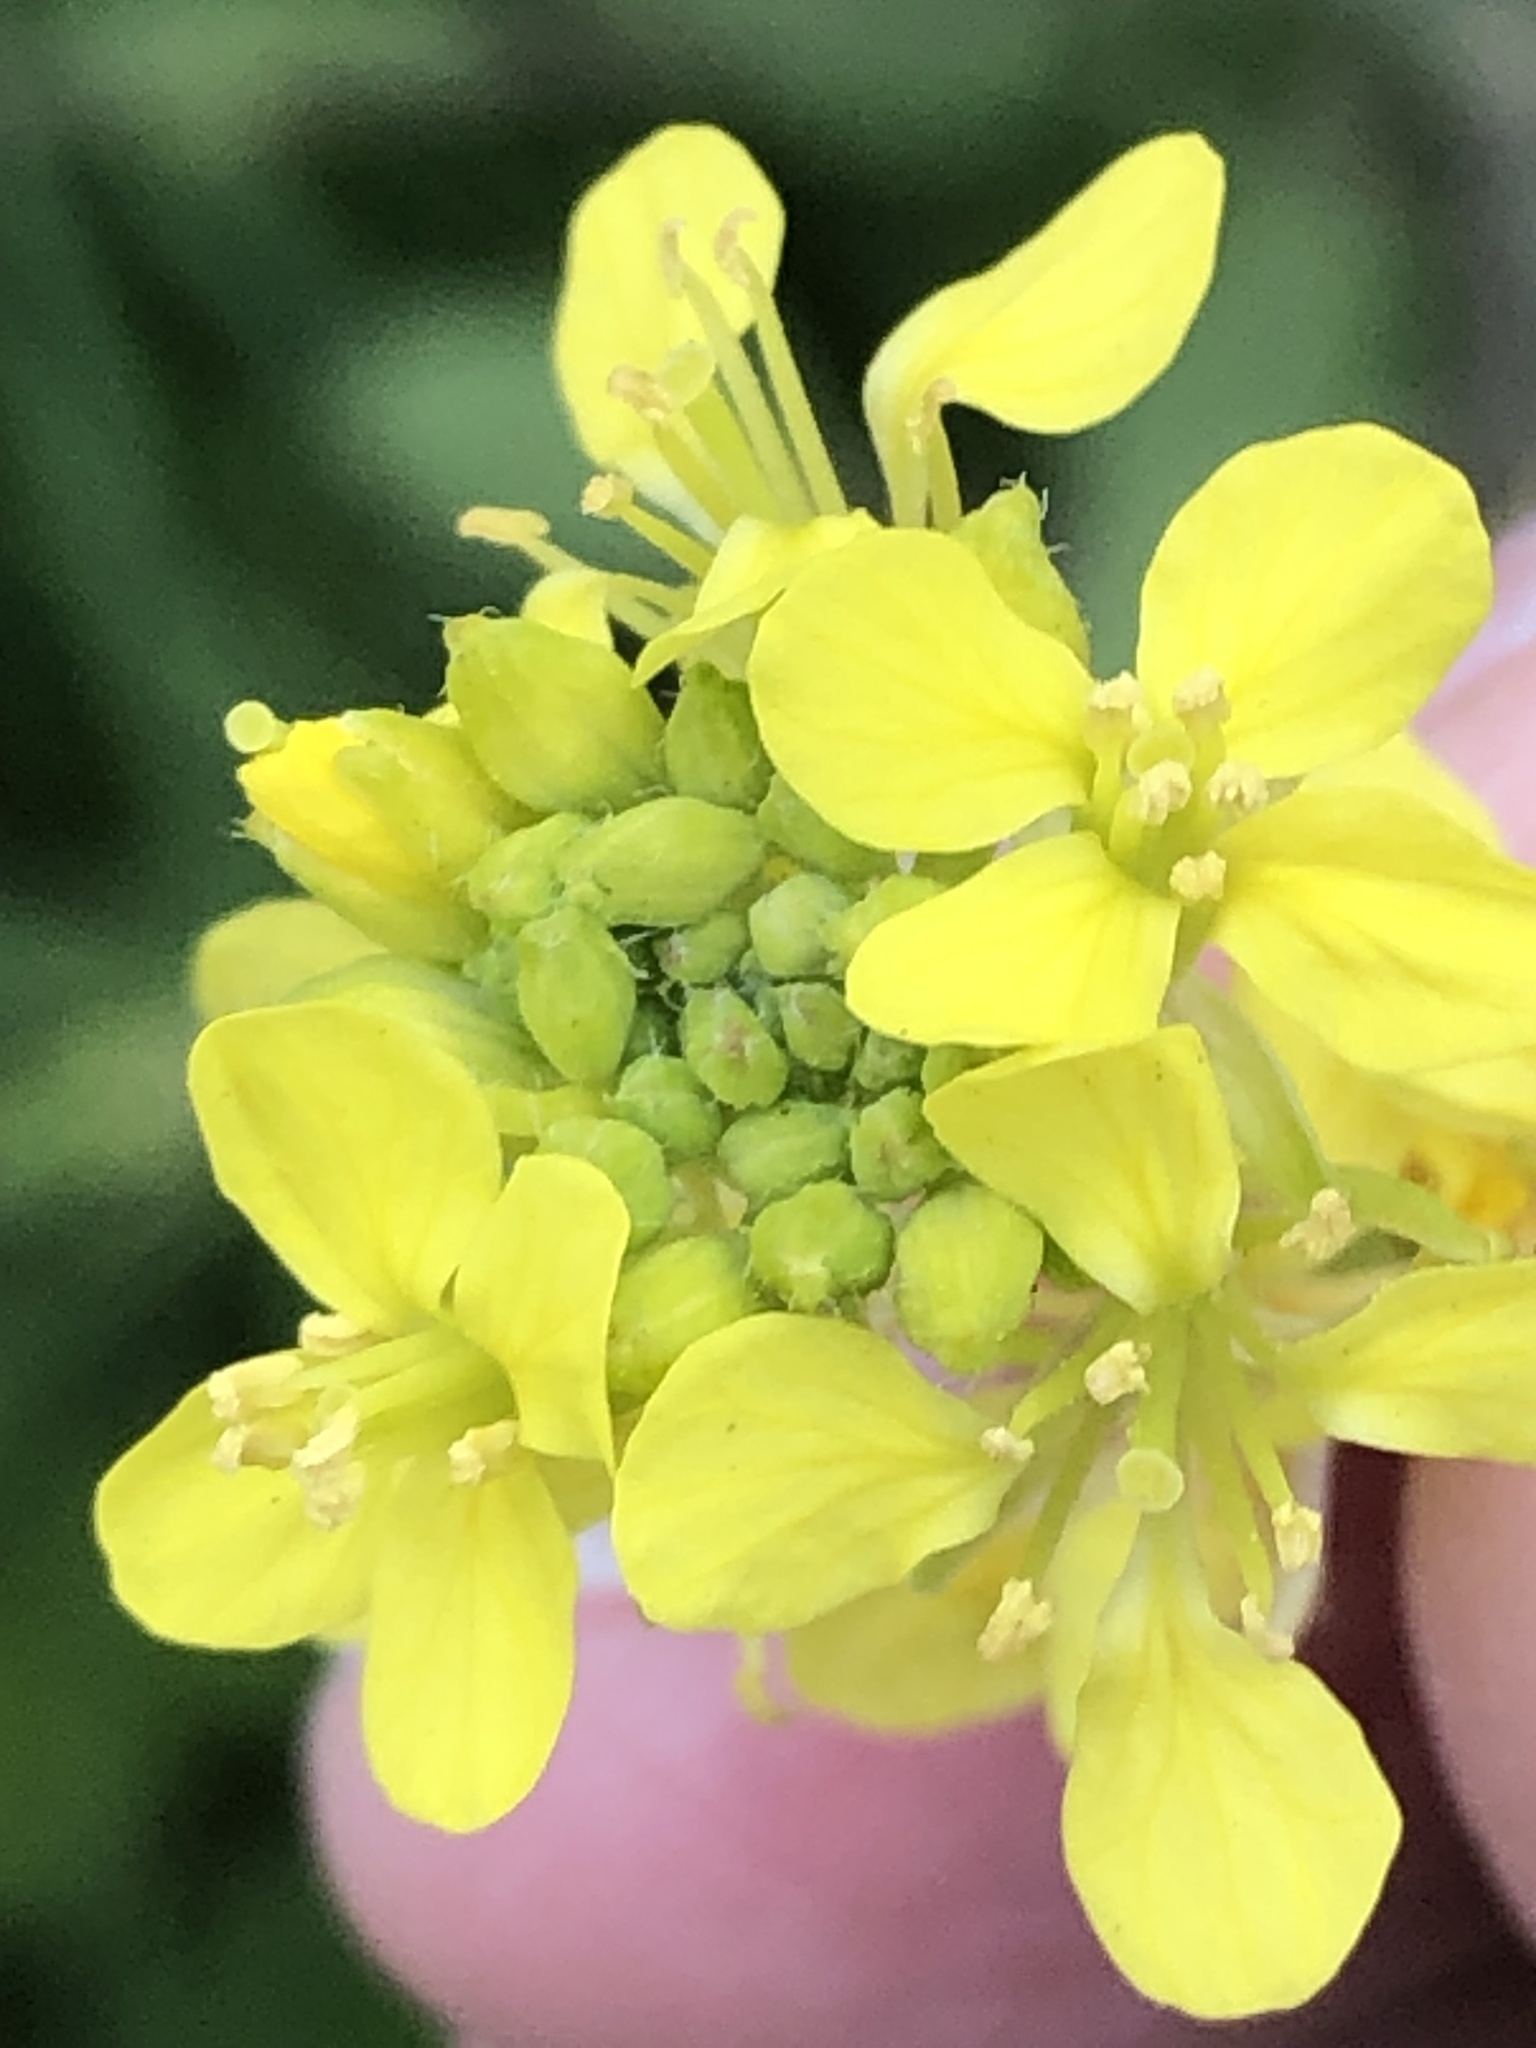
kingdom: Plantae
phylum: Tracheophyta
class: Magnoliopsida
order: Brassicales
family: Brassicaceae
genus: Sinapis
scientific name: Sinapis arvensis
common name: Charlock
